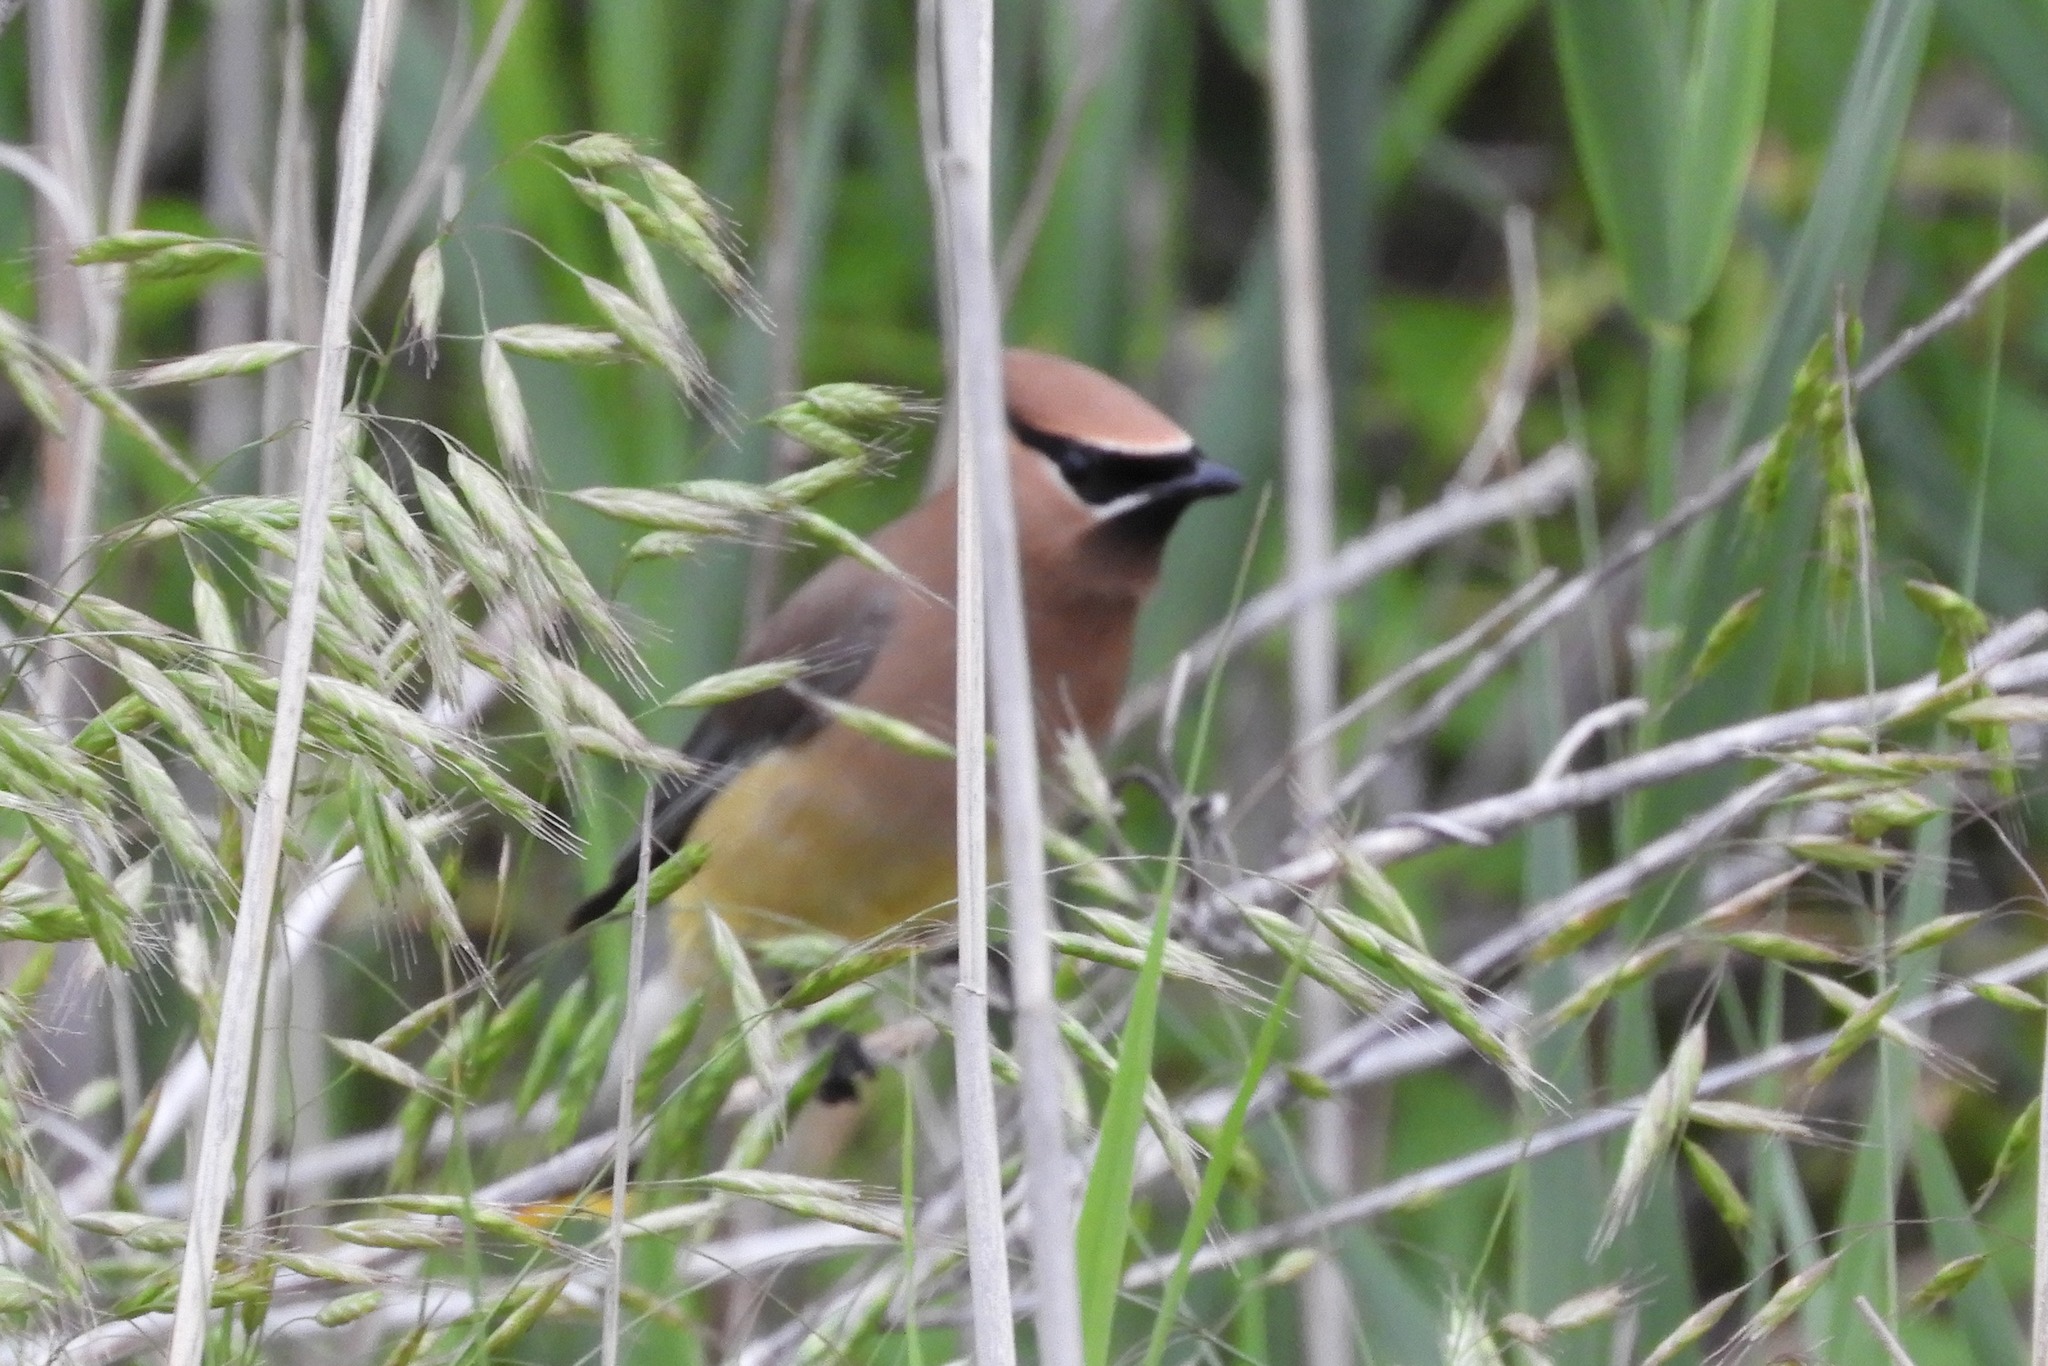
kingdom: Animalia
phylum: Chordata
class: Aves
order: Passeriformes
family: Bombycillidae
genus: Bombycilla
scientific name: Bombycilla cedrorum
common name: Cedar waxwing
